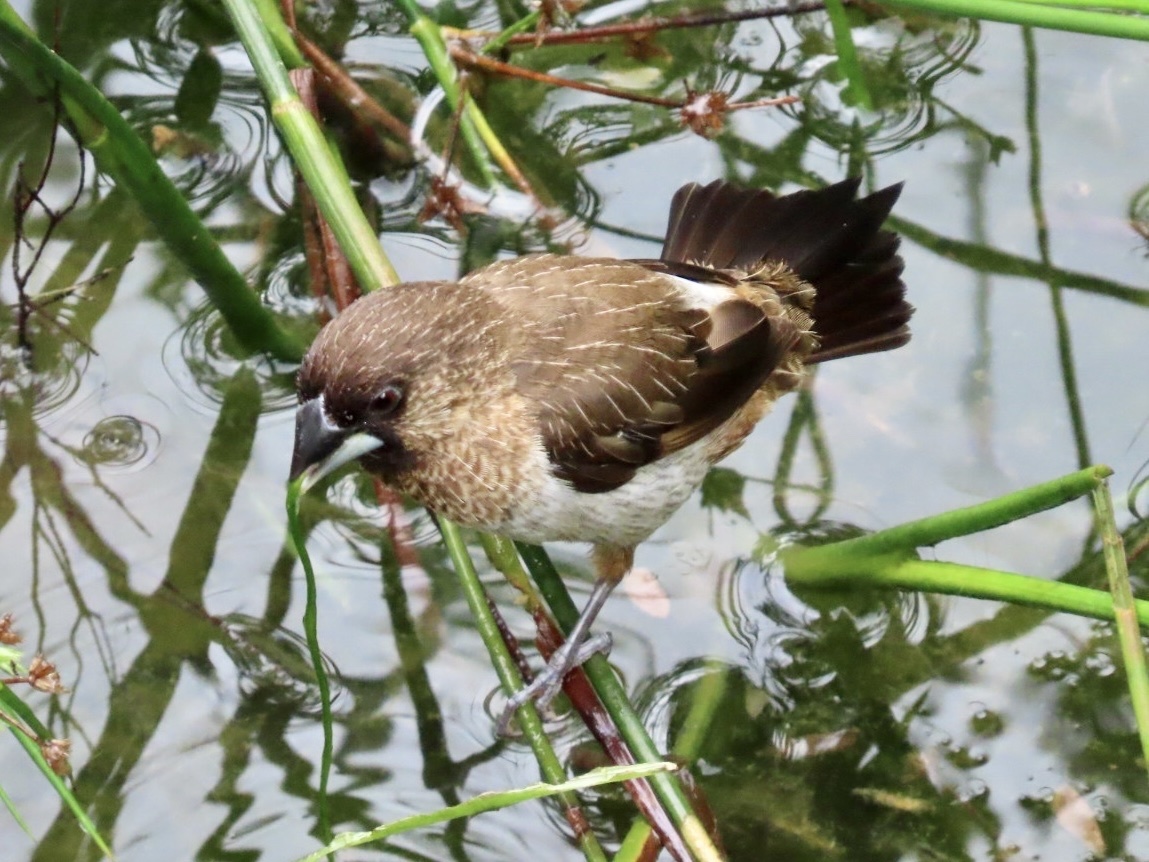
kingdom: Animalia
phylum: Chordata
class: Aves
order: Passeriformes
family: Estrildidae
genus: Lonchura
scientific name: Lonchura striata
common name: White-rumped munia
